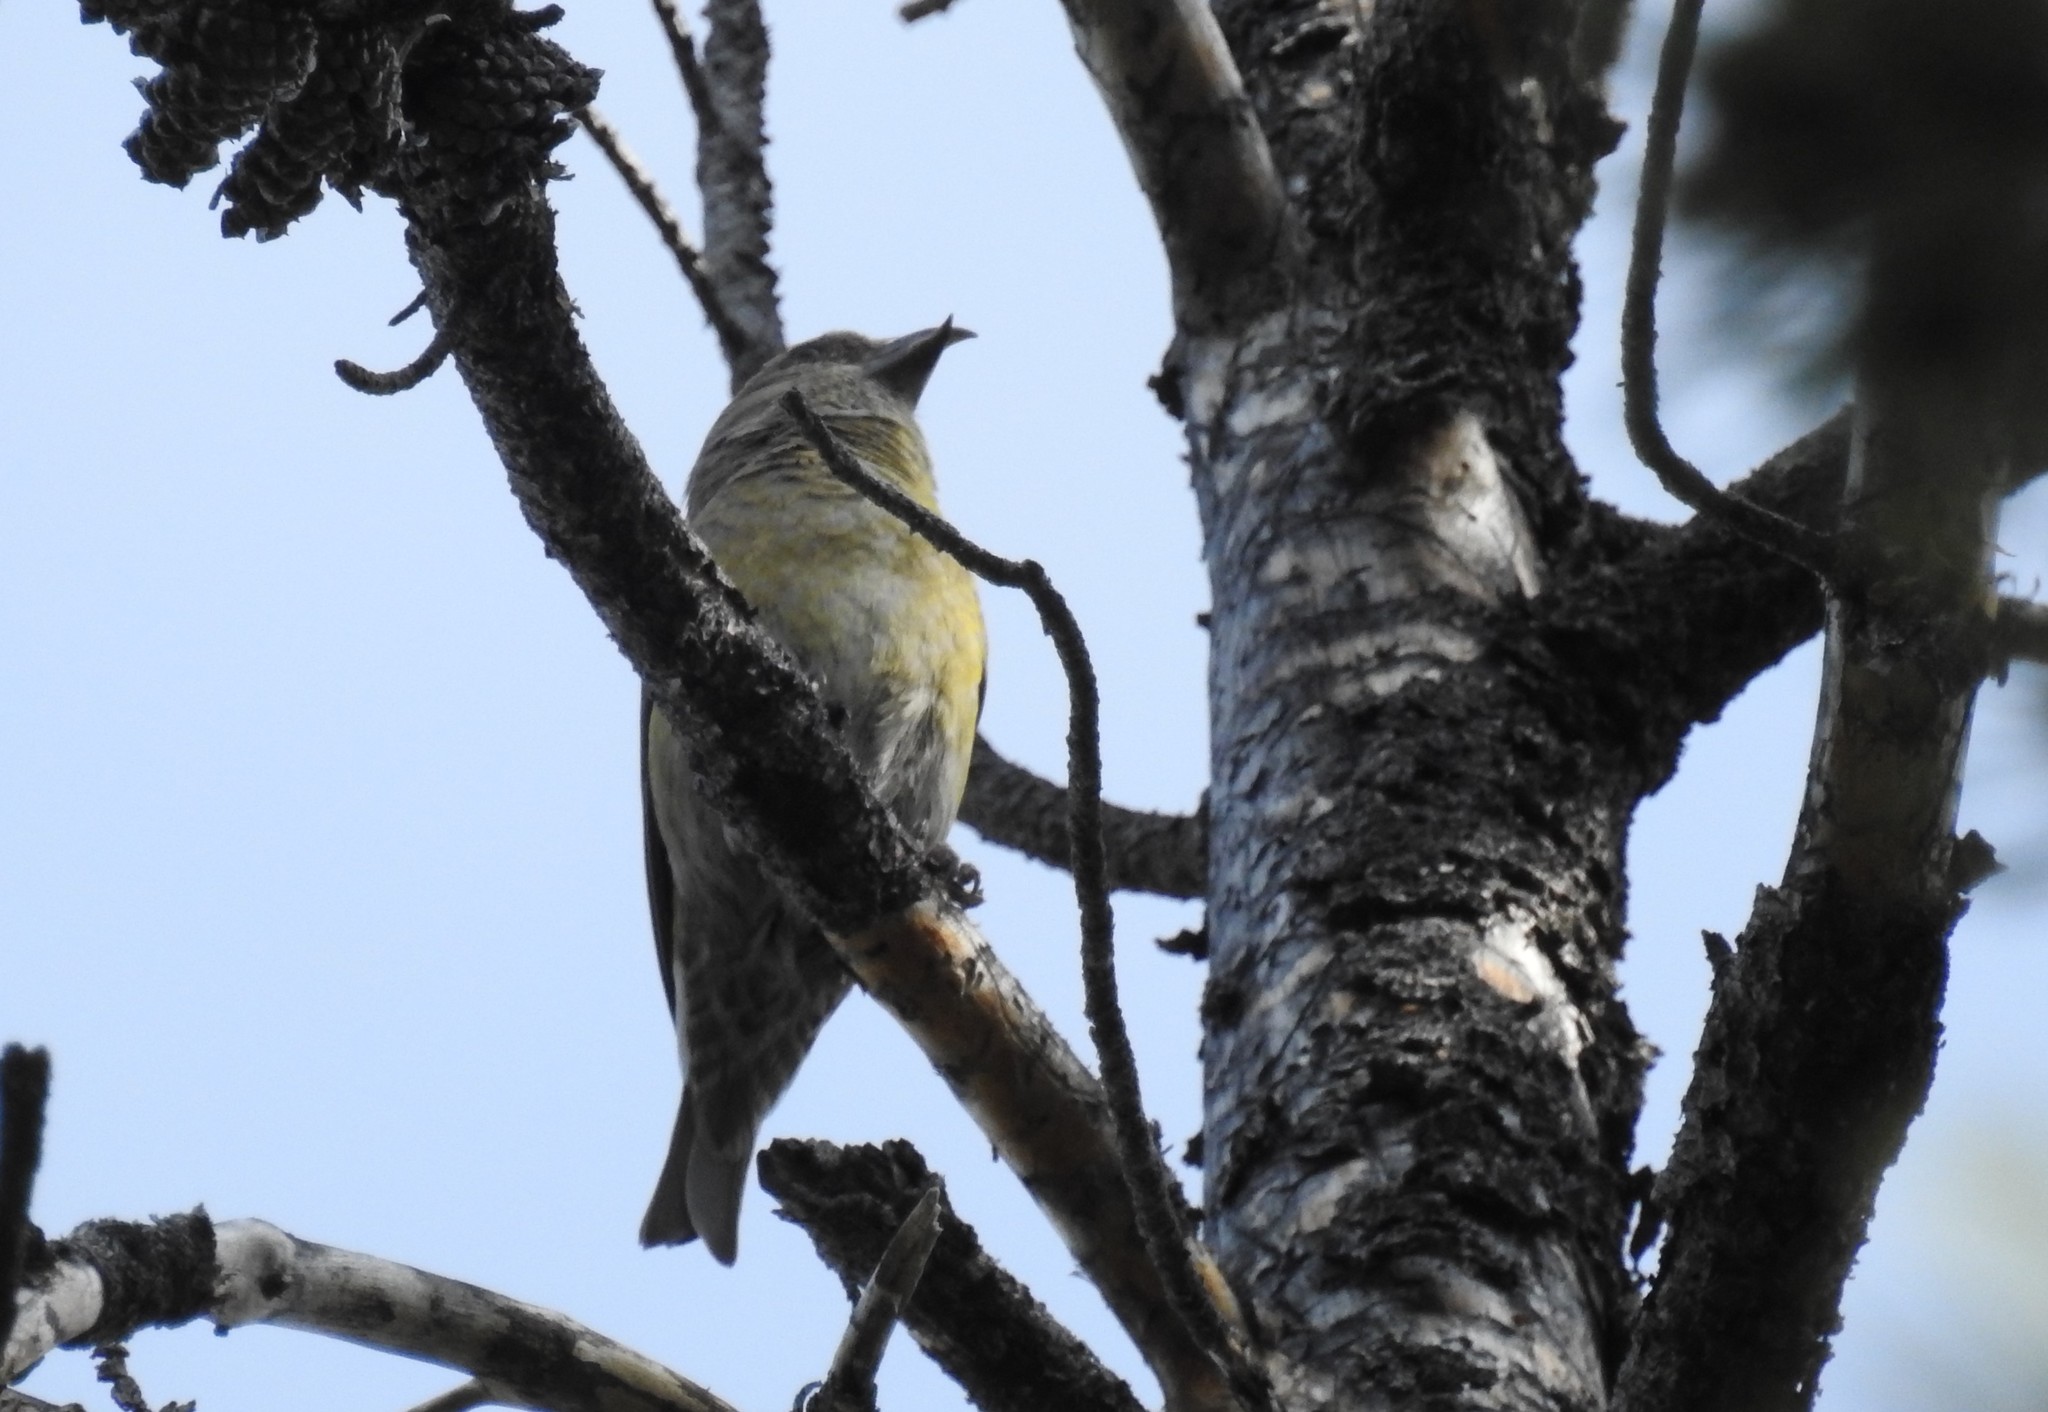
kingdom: Animalia
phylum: Chordata
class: Aves
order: Passeriformes
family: Fringillidae
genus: Loxia
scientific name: Loxia curvirostra
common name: Red crossbill
